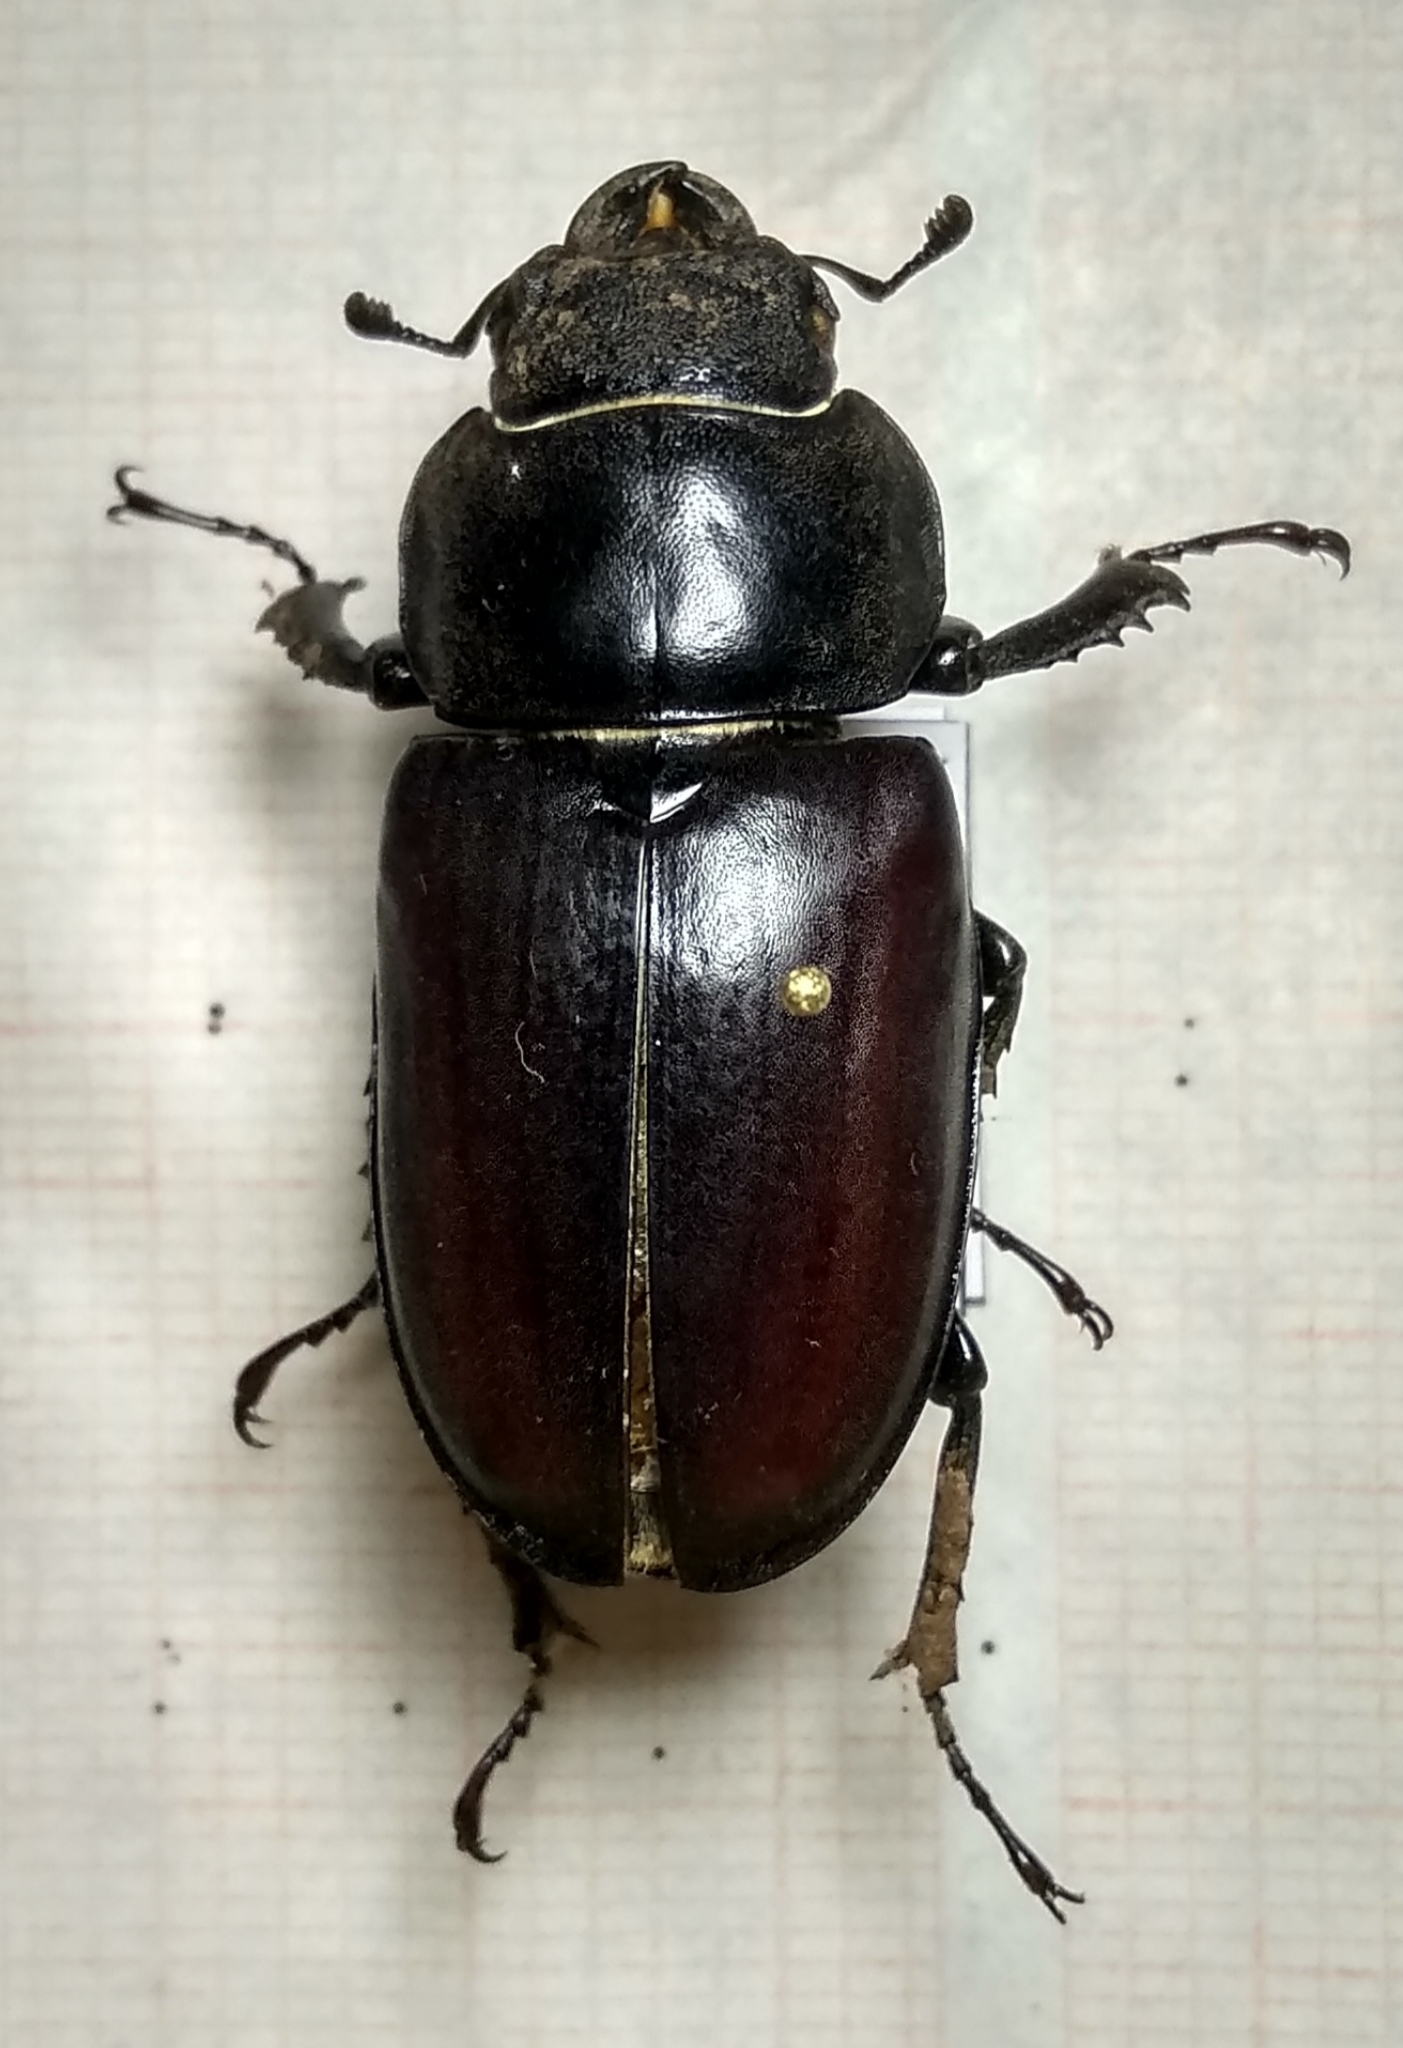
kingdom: Animalia
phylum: Arthropoda
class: Insecta
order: Coleoptera
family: Lucanidae
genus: Lucanus
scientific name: Lucanus cervus
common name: Stag beetle
